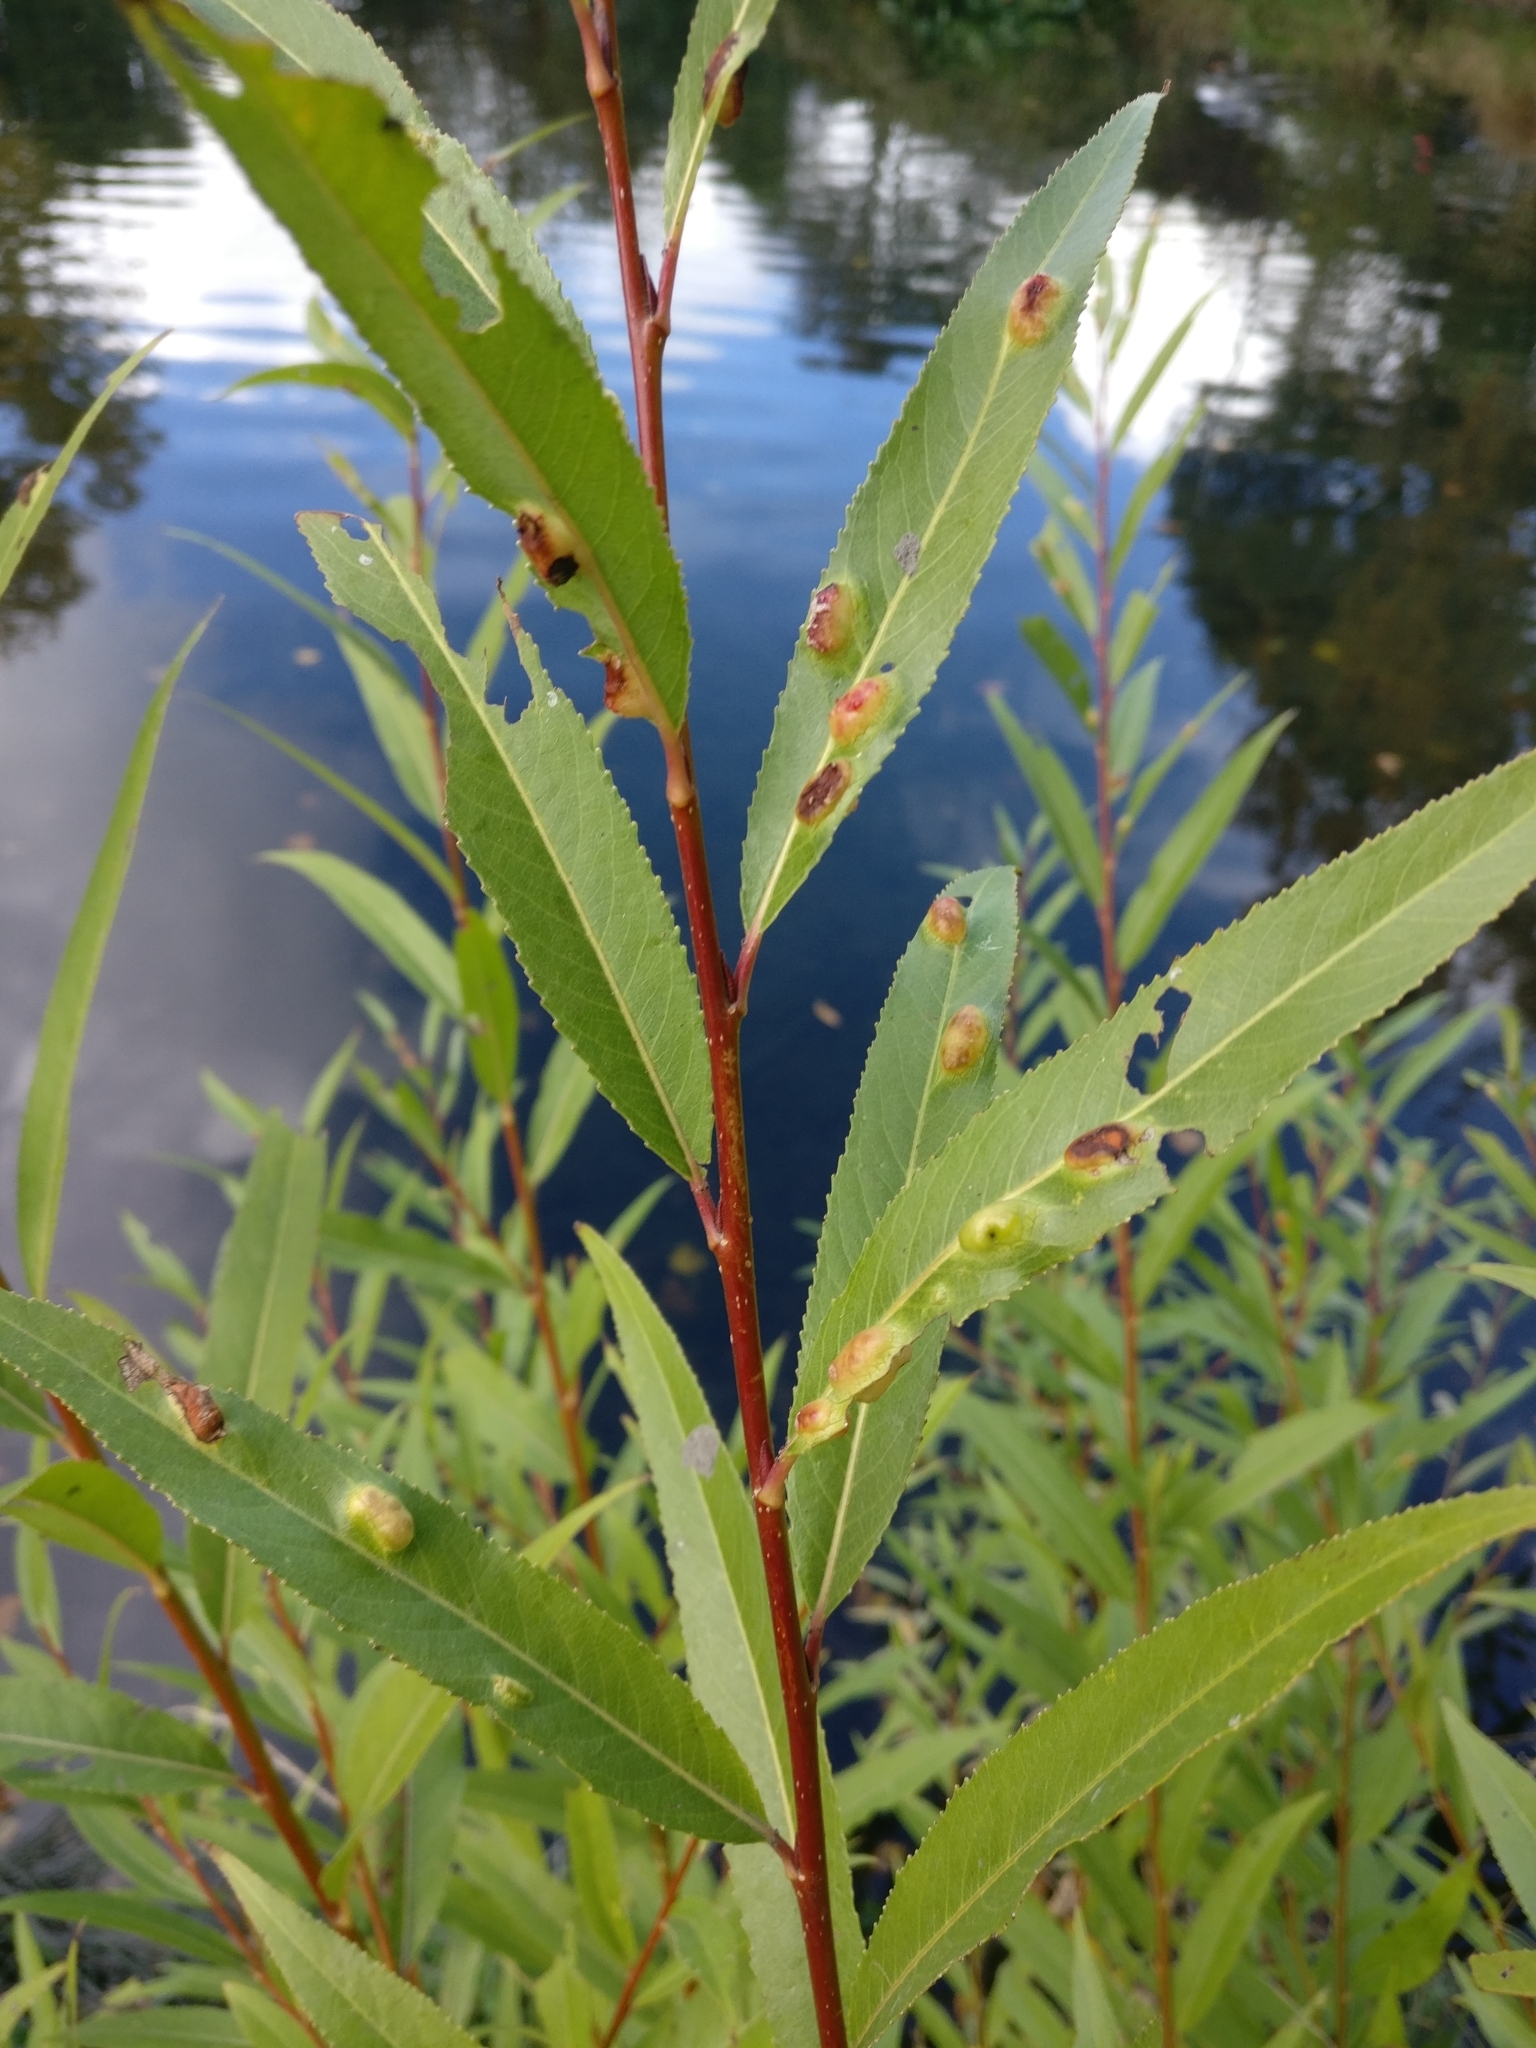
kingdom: Animalia
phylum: Arthropoda
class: Insecta
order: Hymenoptera
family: Tenthredinidae
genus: Pontania
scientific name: Pontania proxima
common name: Common sawfly
